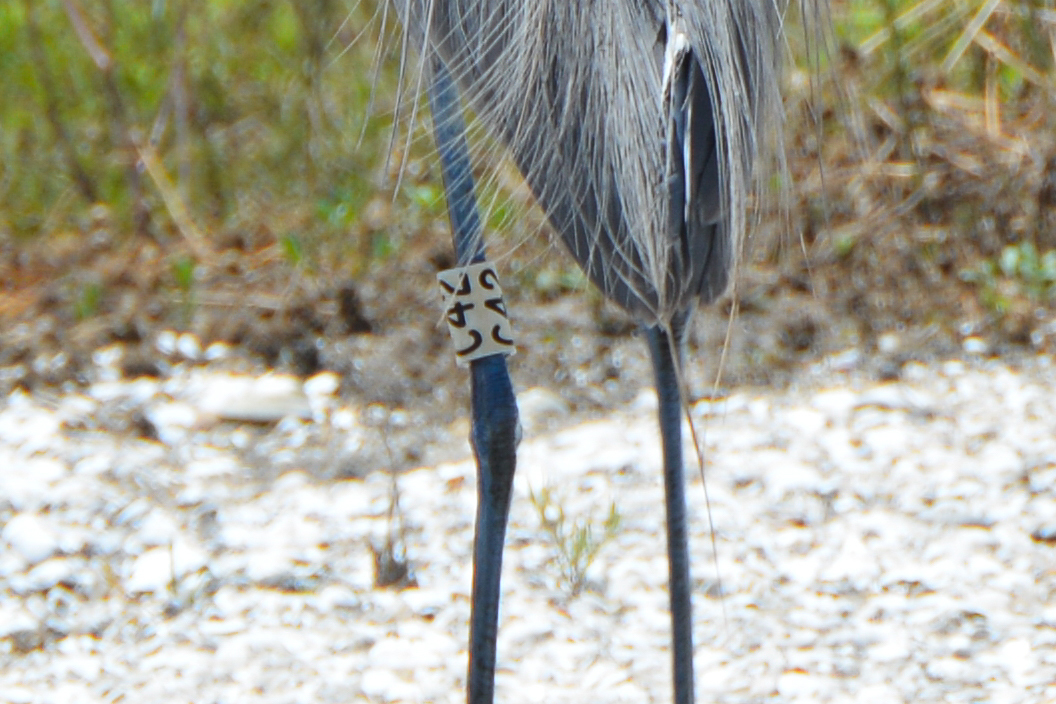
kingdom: Animalia
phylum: Chordata
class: Aves
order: Pelecaniformes
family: Ardeidae
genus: Egretta
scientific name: Egretta rufescens
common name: Reddish egret
